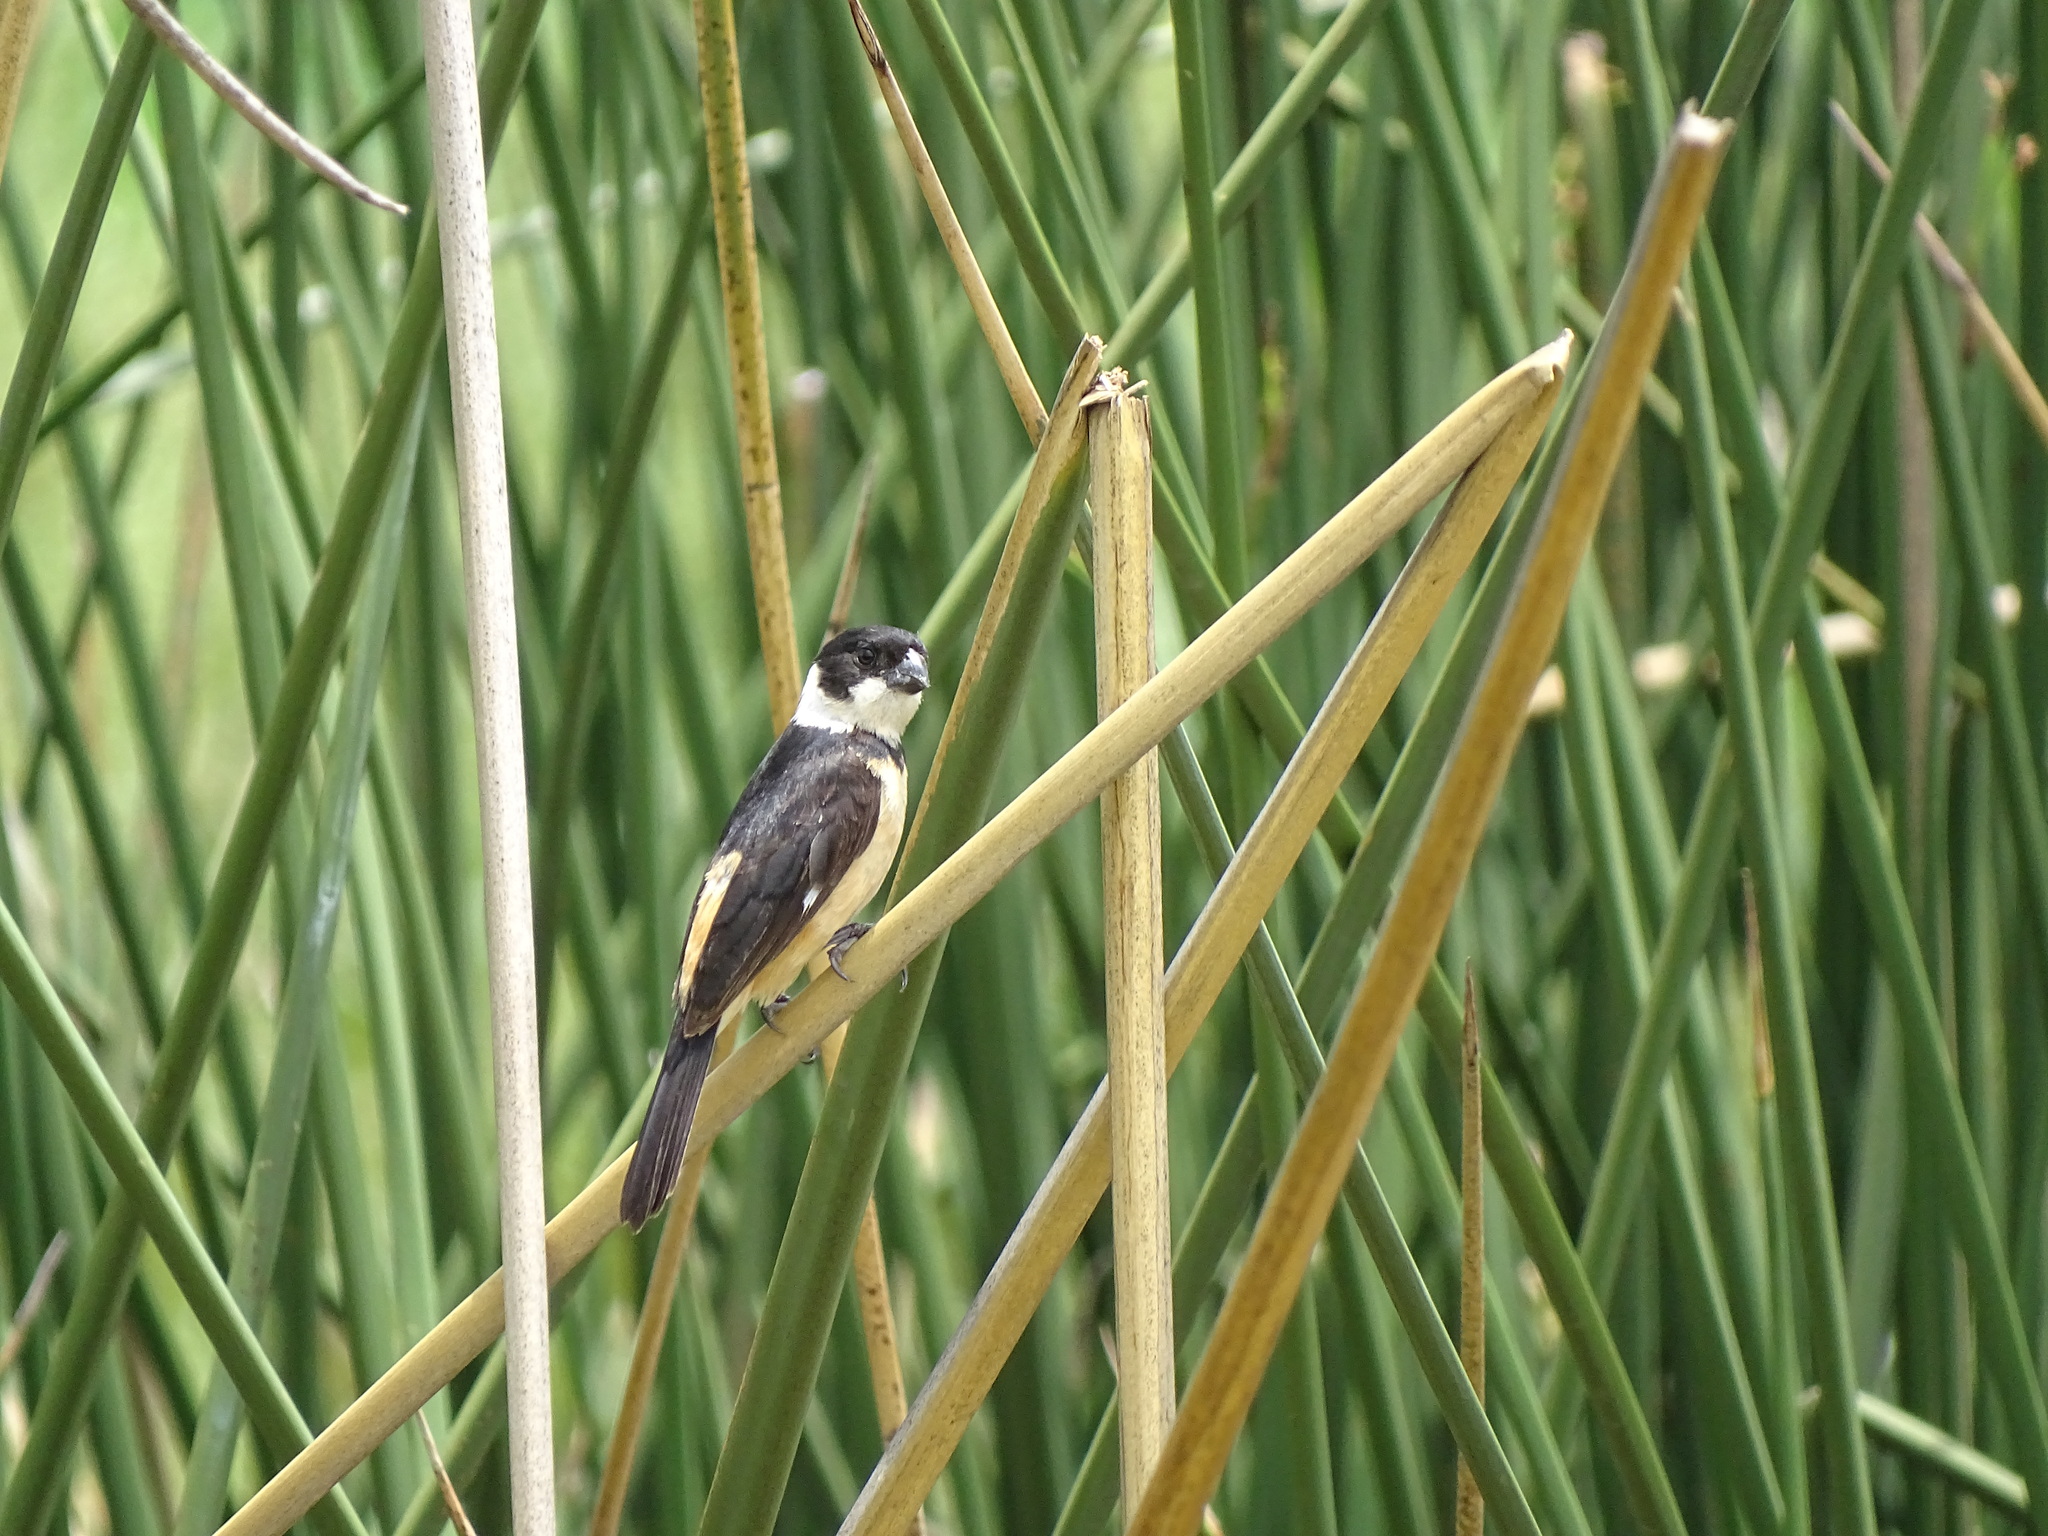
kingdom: Animalia
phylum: Chordata
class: Aves
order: Passeriformes
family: Thraupidae
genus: Sporophila
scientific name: Sporophila torqueola
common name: White-collared seedeater
